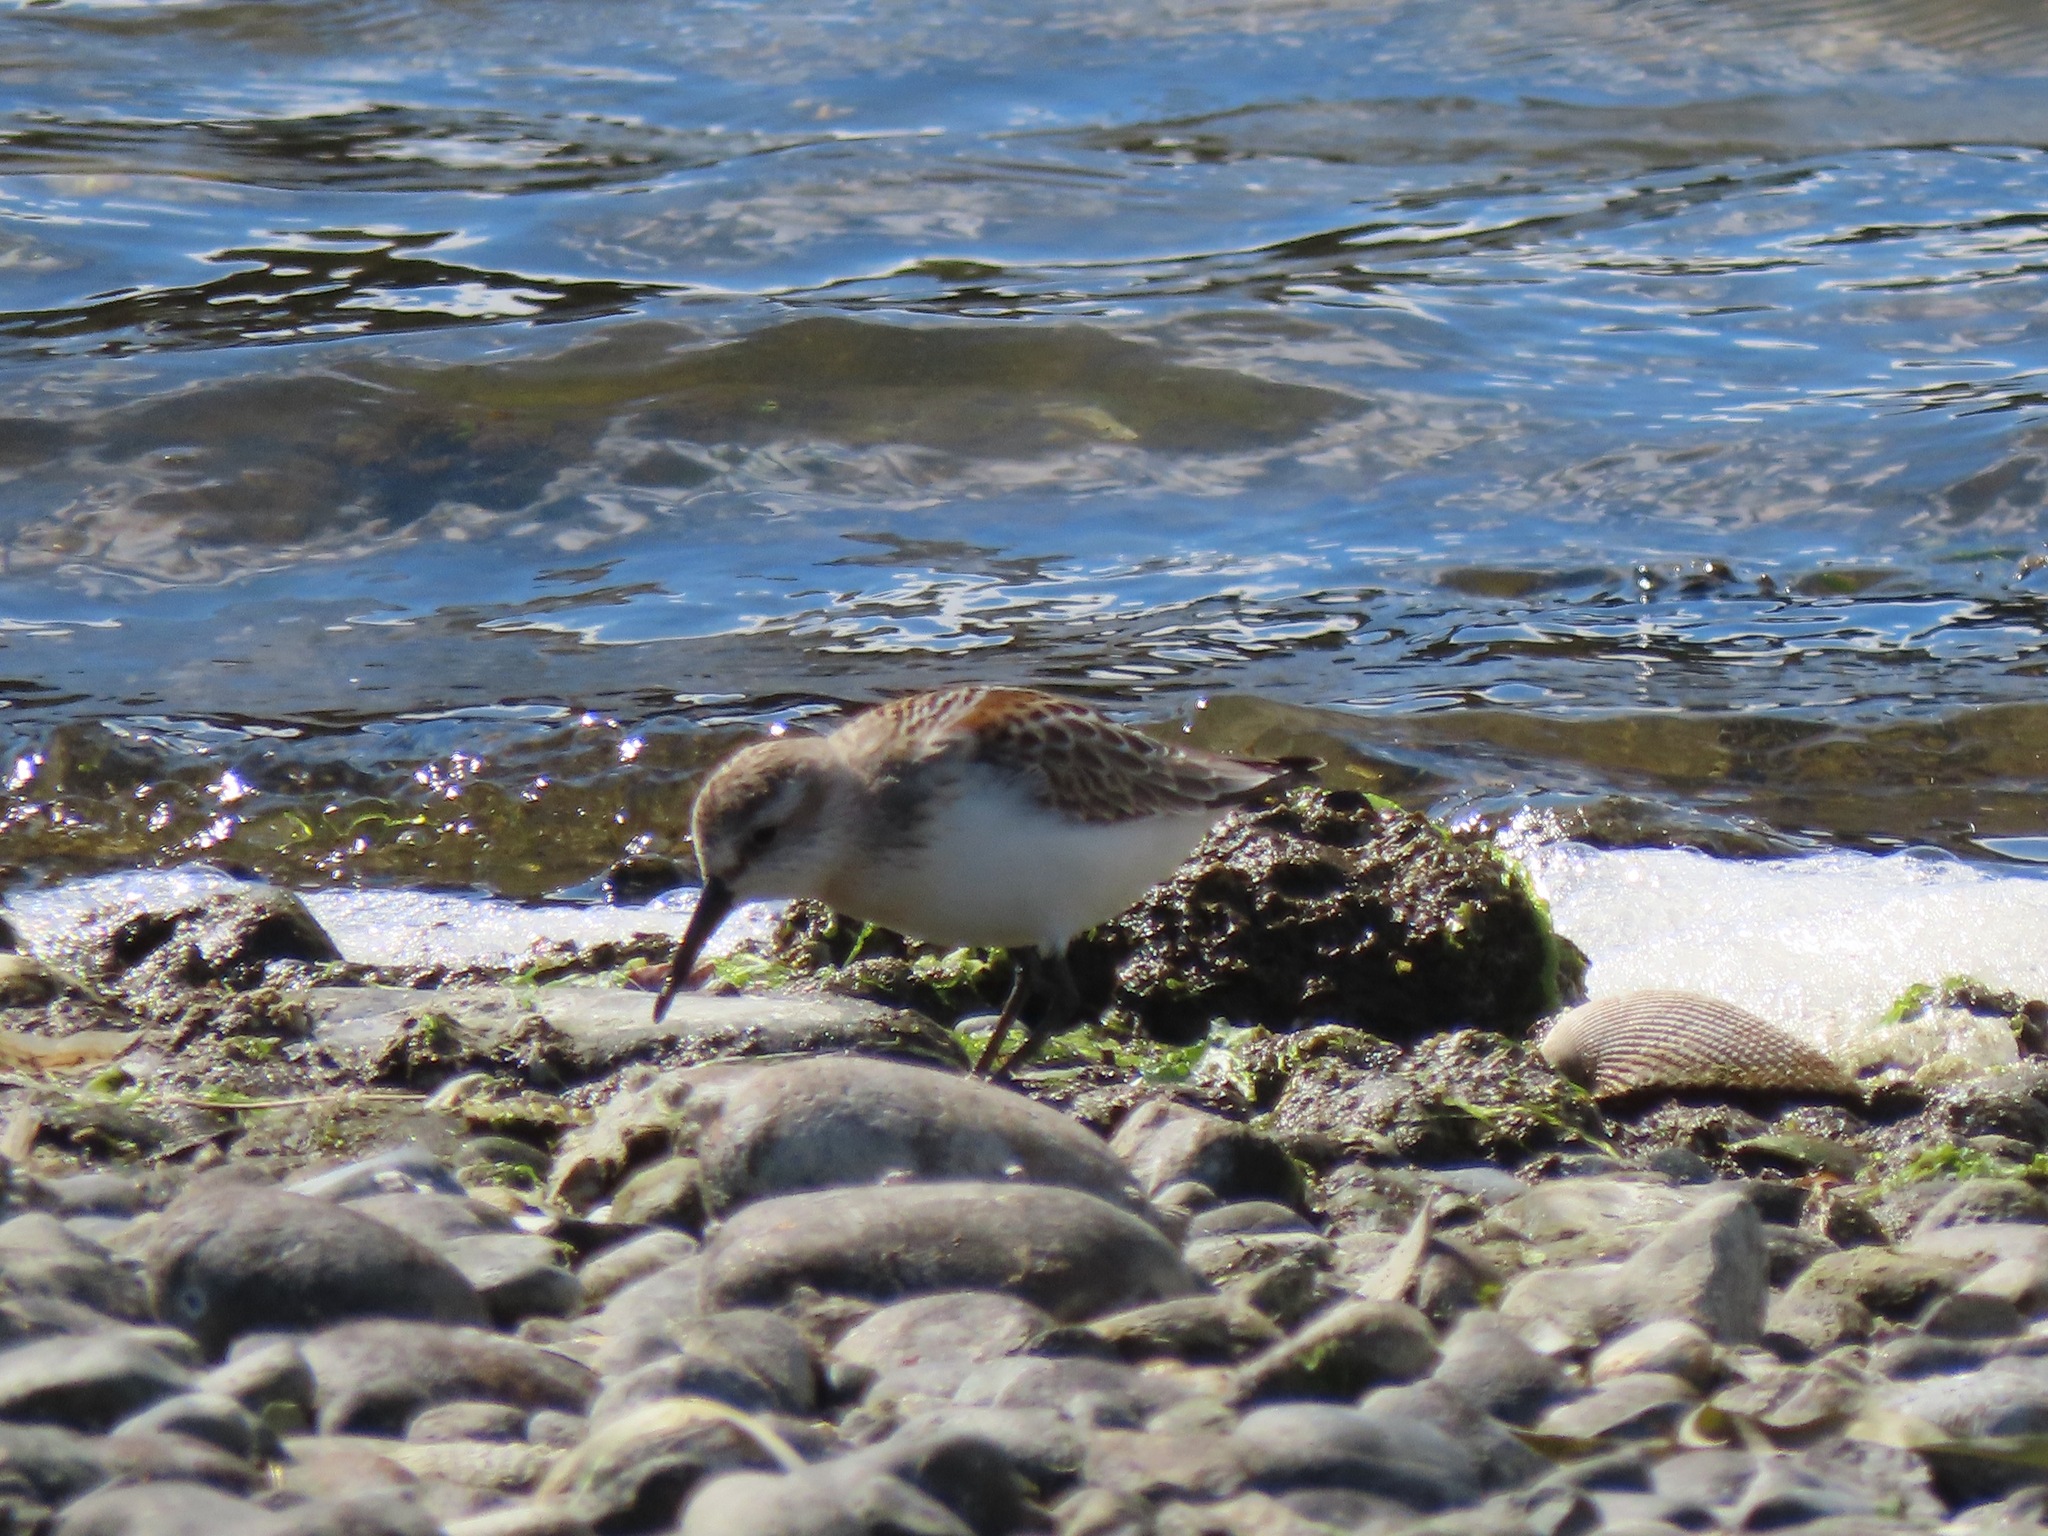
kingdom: Animalia
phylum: Chordata
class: Aves
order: Charadriiformes
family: Scolopacidae
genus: Calidris
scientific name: Calidris mauri
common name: Western sandpiper
